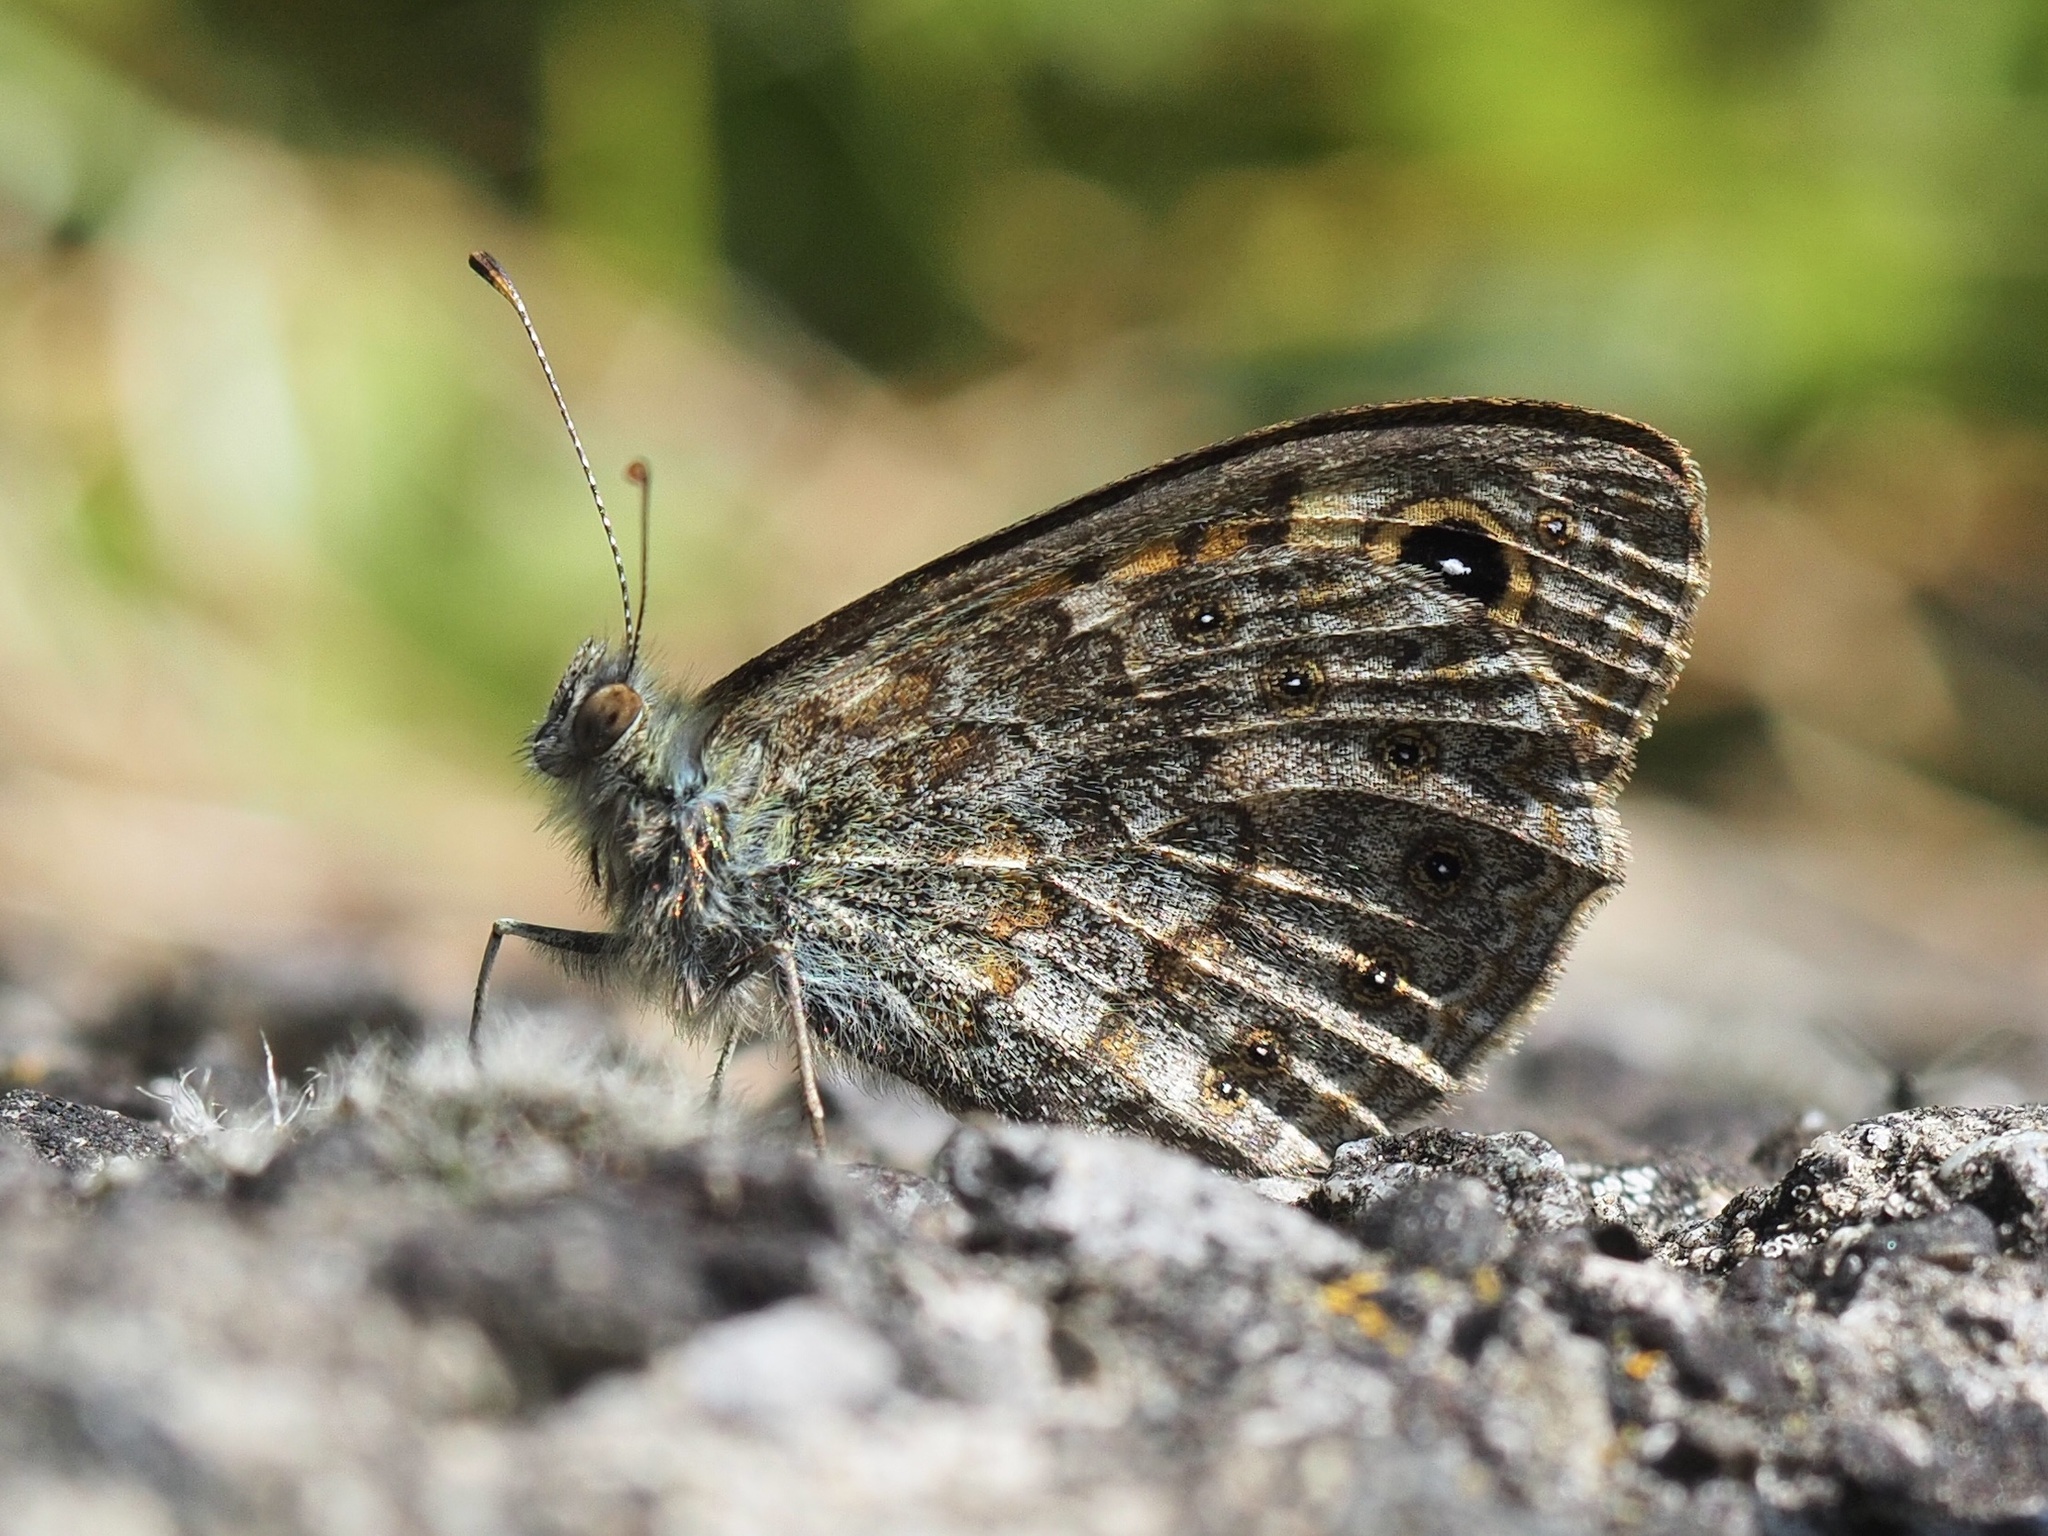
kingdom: Animalia
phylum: Arthropoda
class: Insecta
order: Lepidoptera
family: Nymphalidae
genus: Pararge
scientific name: Pararge Lasiommata megera
